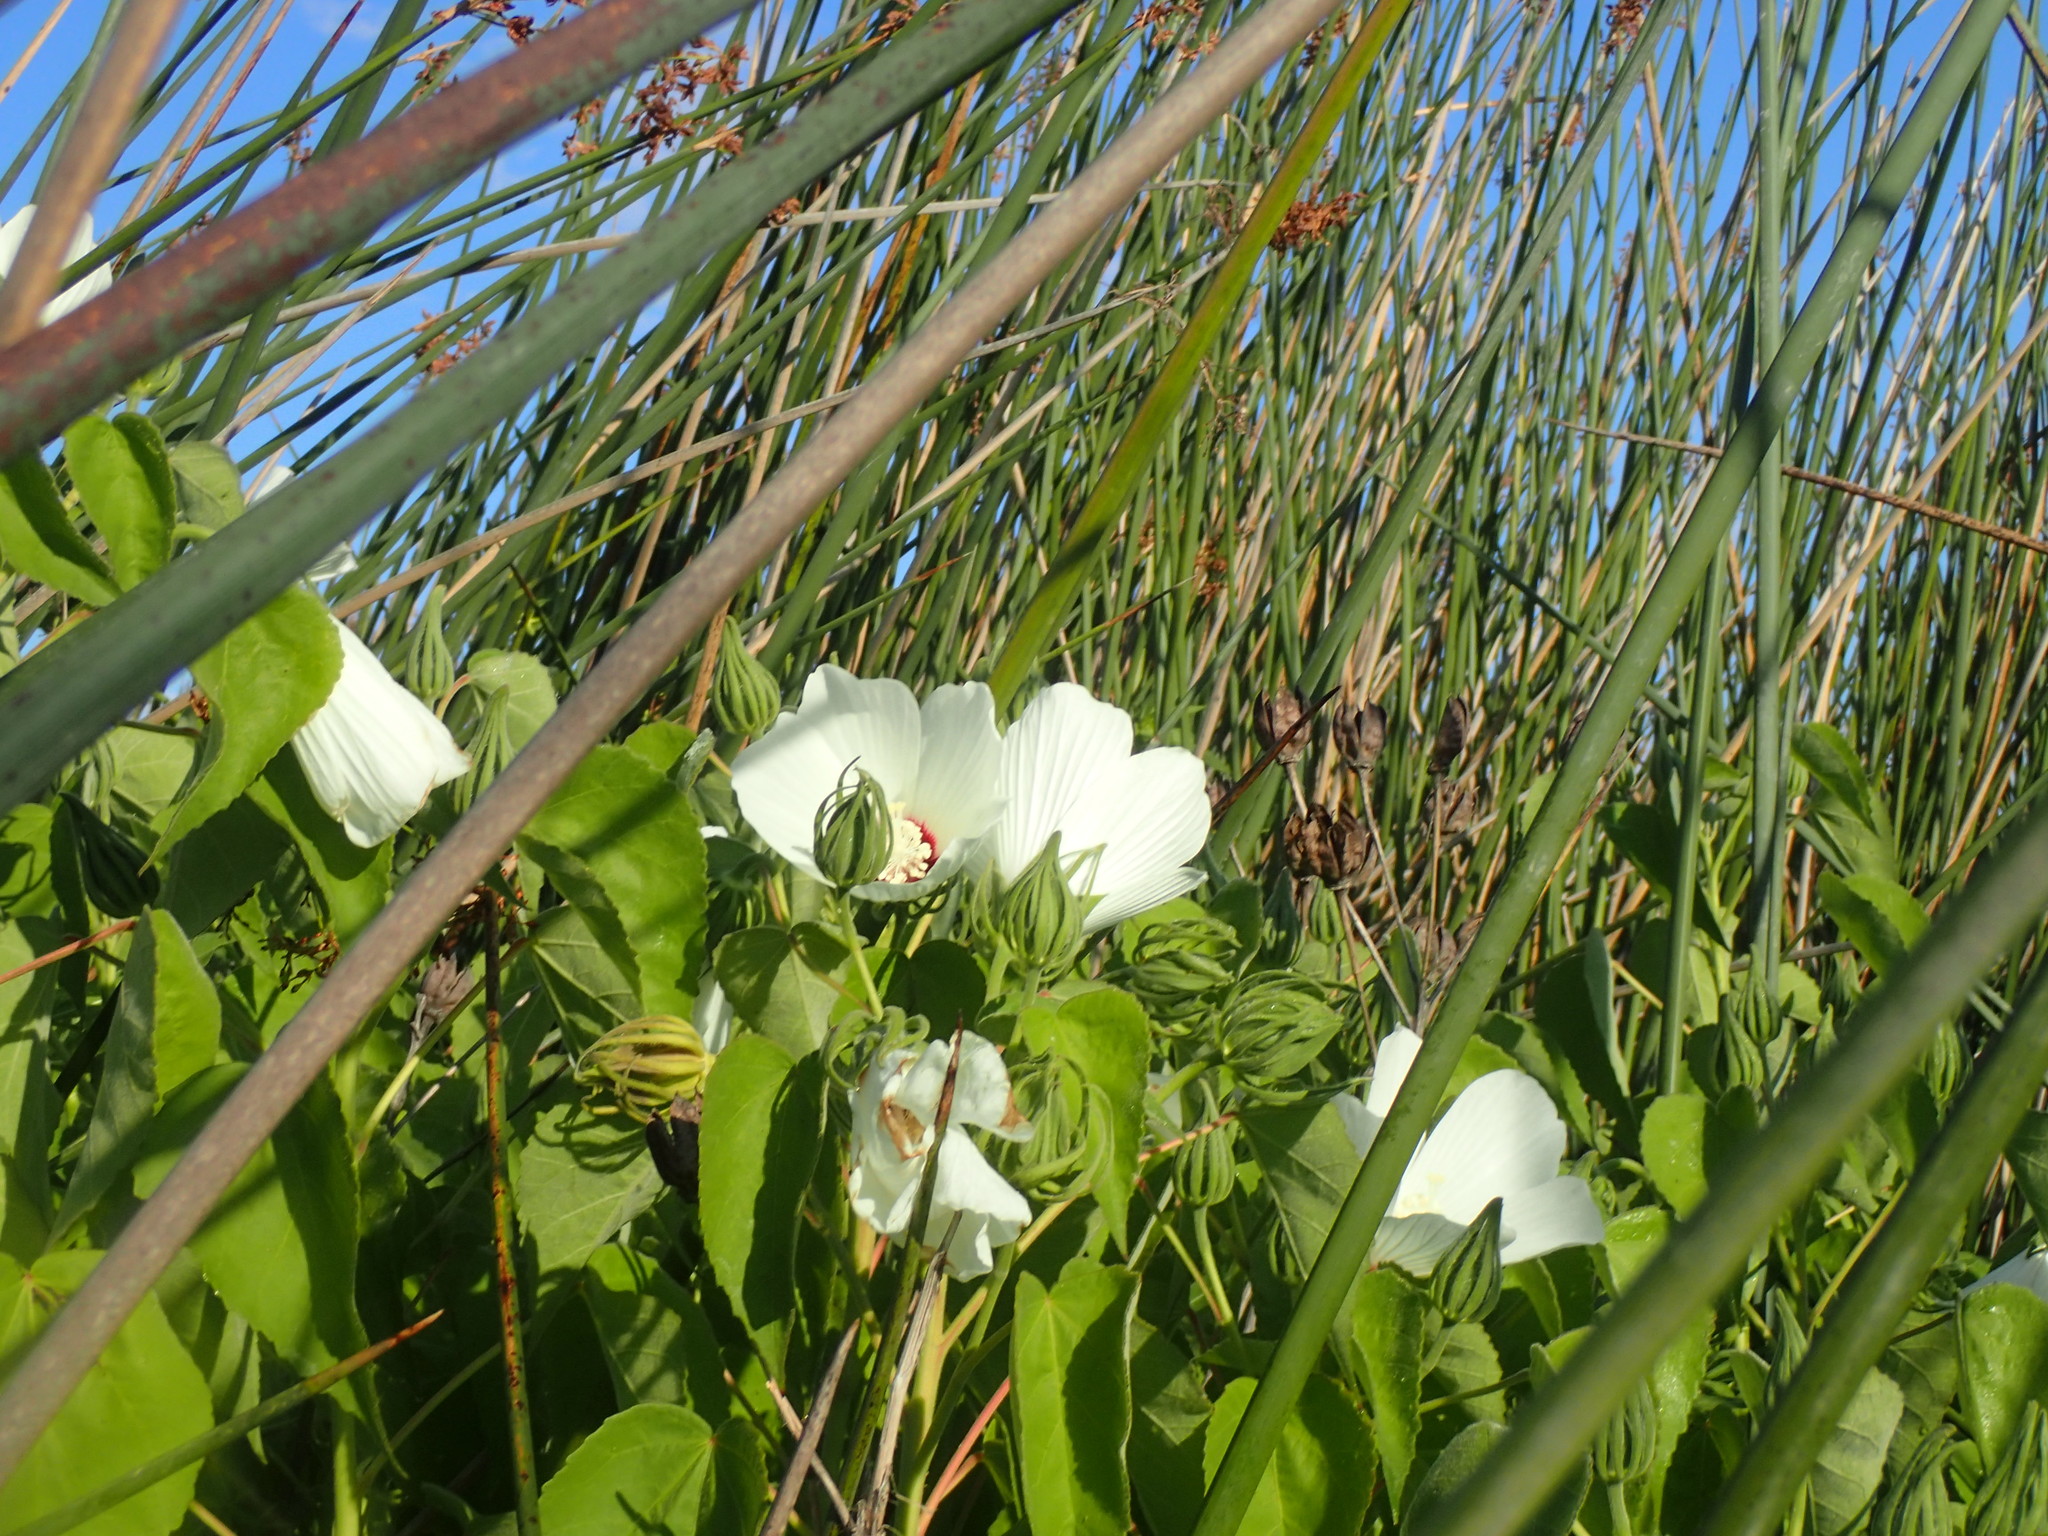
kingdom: Plantae
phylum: Tracheophyta
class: Magnoliopsida
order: Malvales
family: Malvaceae
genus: Hibiscus
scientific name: Hibiscus moscheutos
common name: Common rose-mallow
